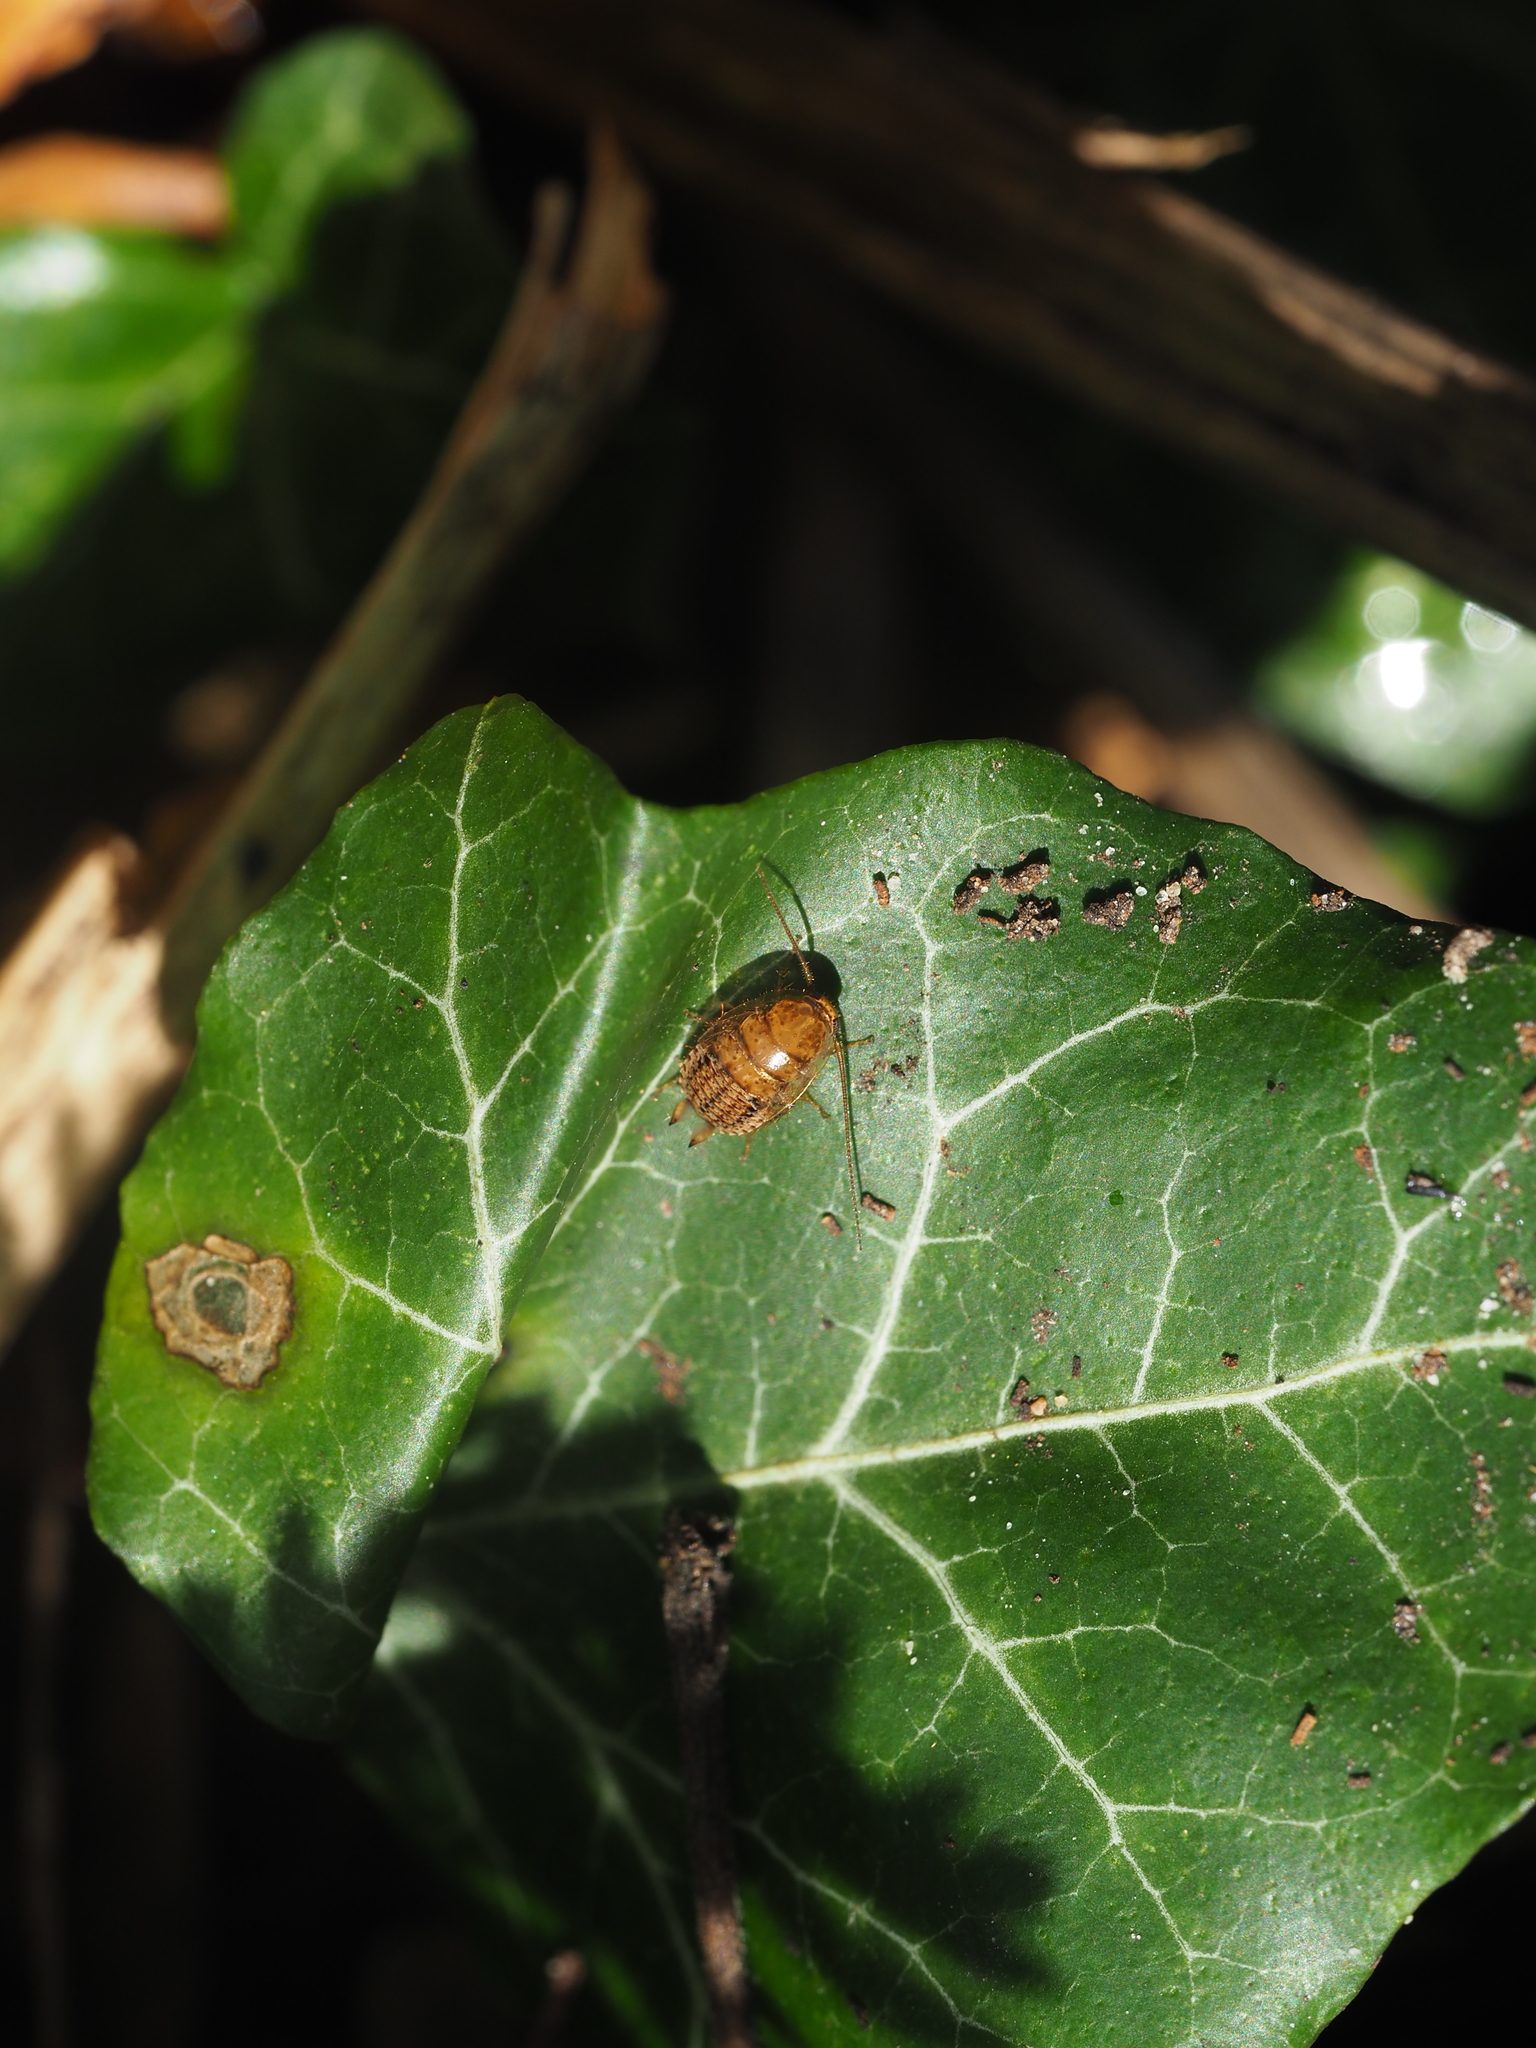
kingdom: Animalia
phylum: Arthropoda
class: Insecta
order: Blattodea
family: Ectobiidae
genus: Ectobius
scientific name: Ectobius vittiventris
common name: Garden cockroach
